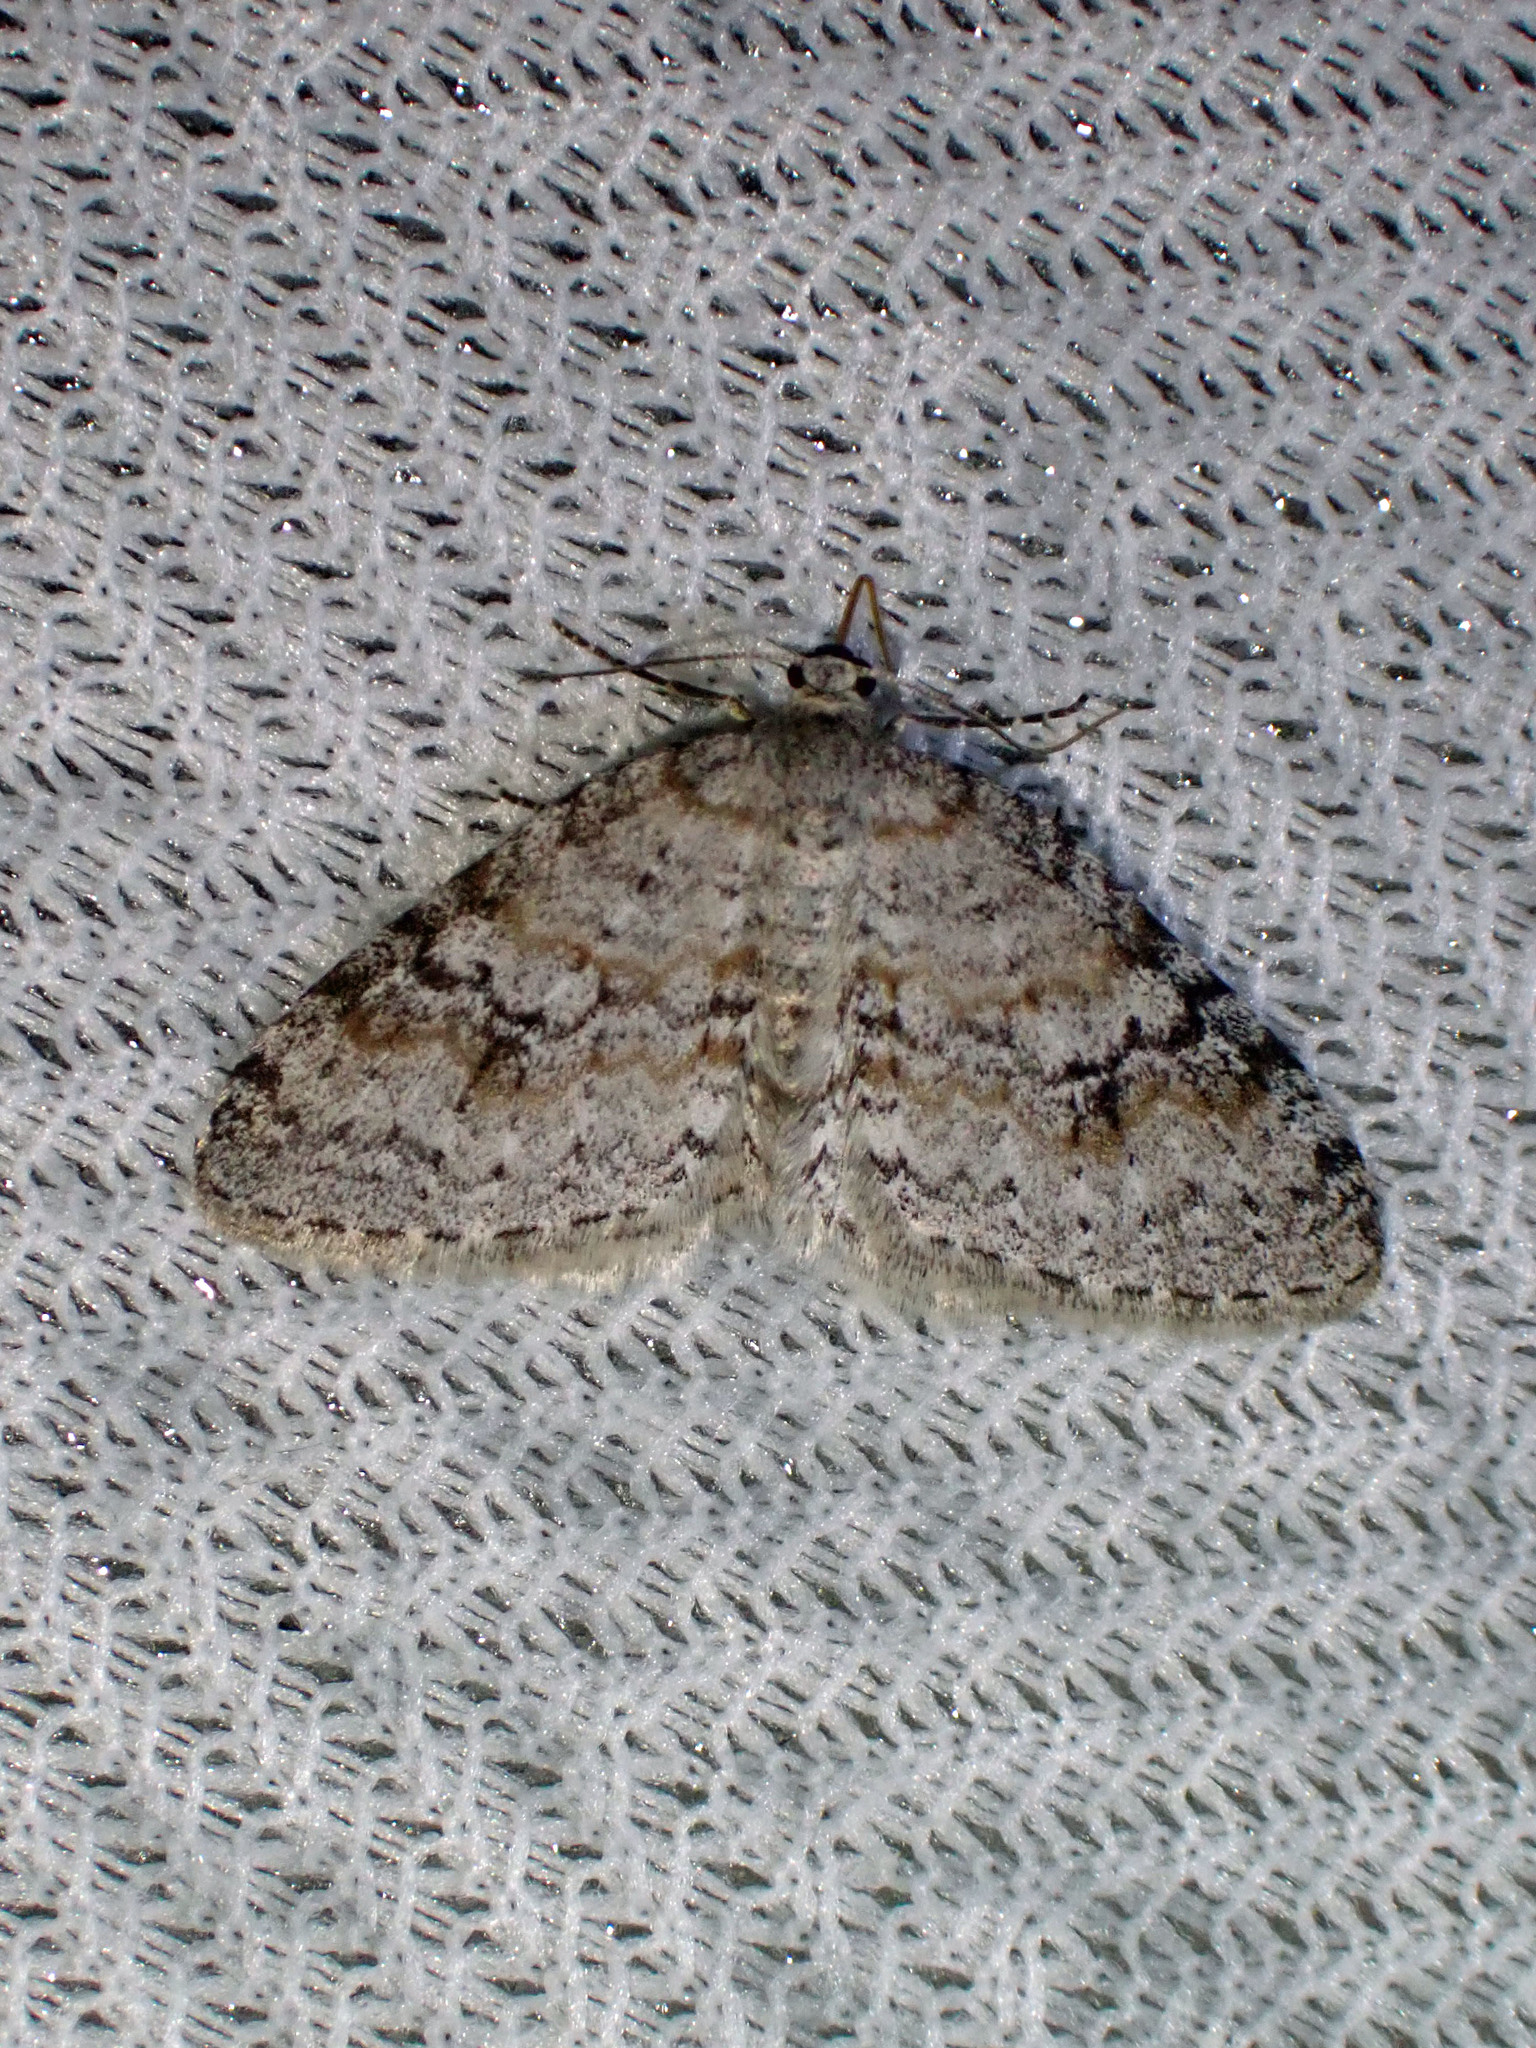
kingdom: Animalia
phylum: Arthropoda
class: Insecta
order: Lepidoptera
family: Geometridae
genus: Venusia
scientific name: Venusia comptaria
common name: Brown-shaded carpet
